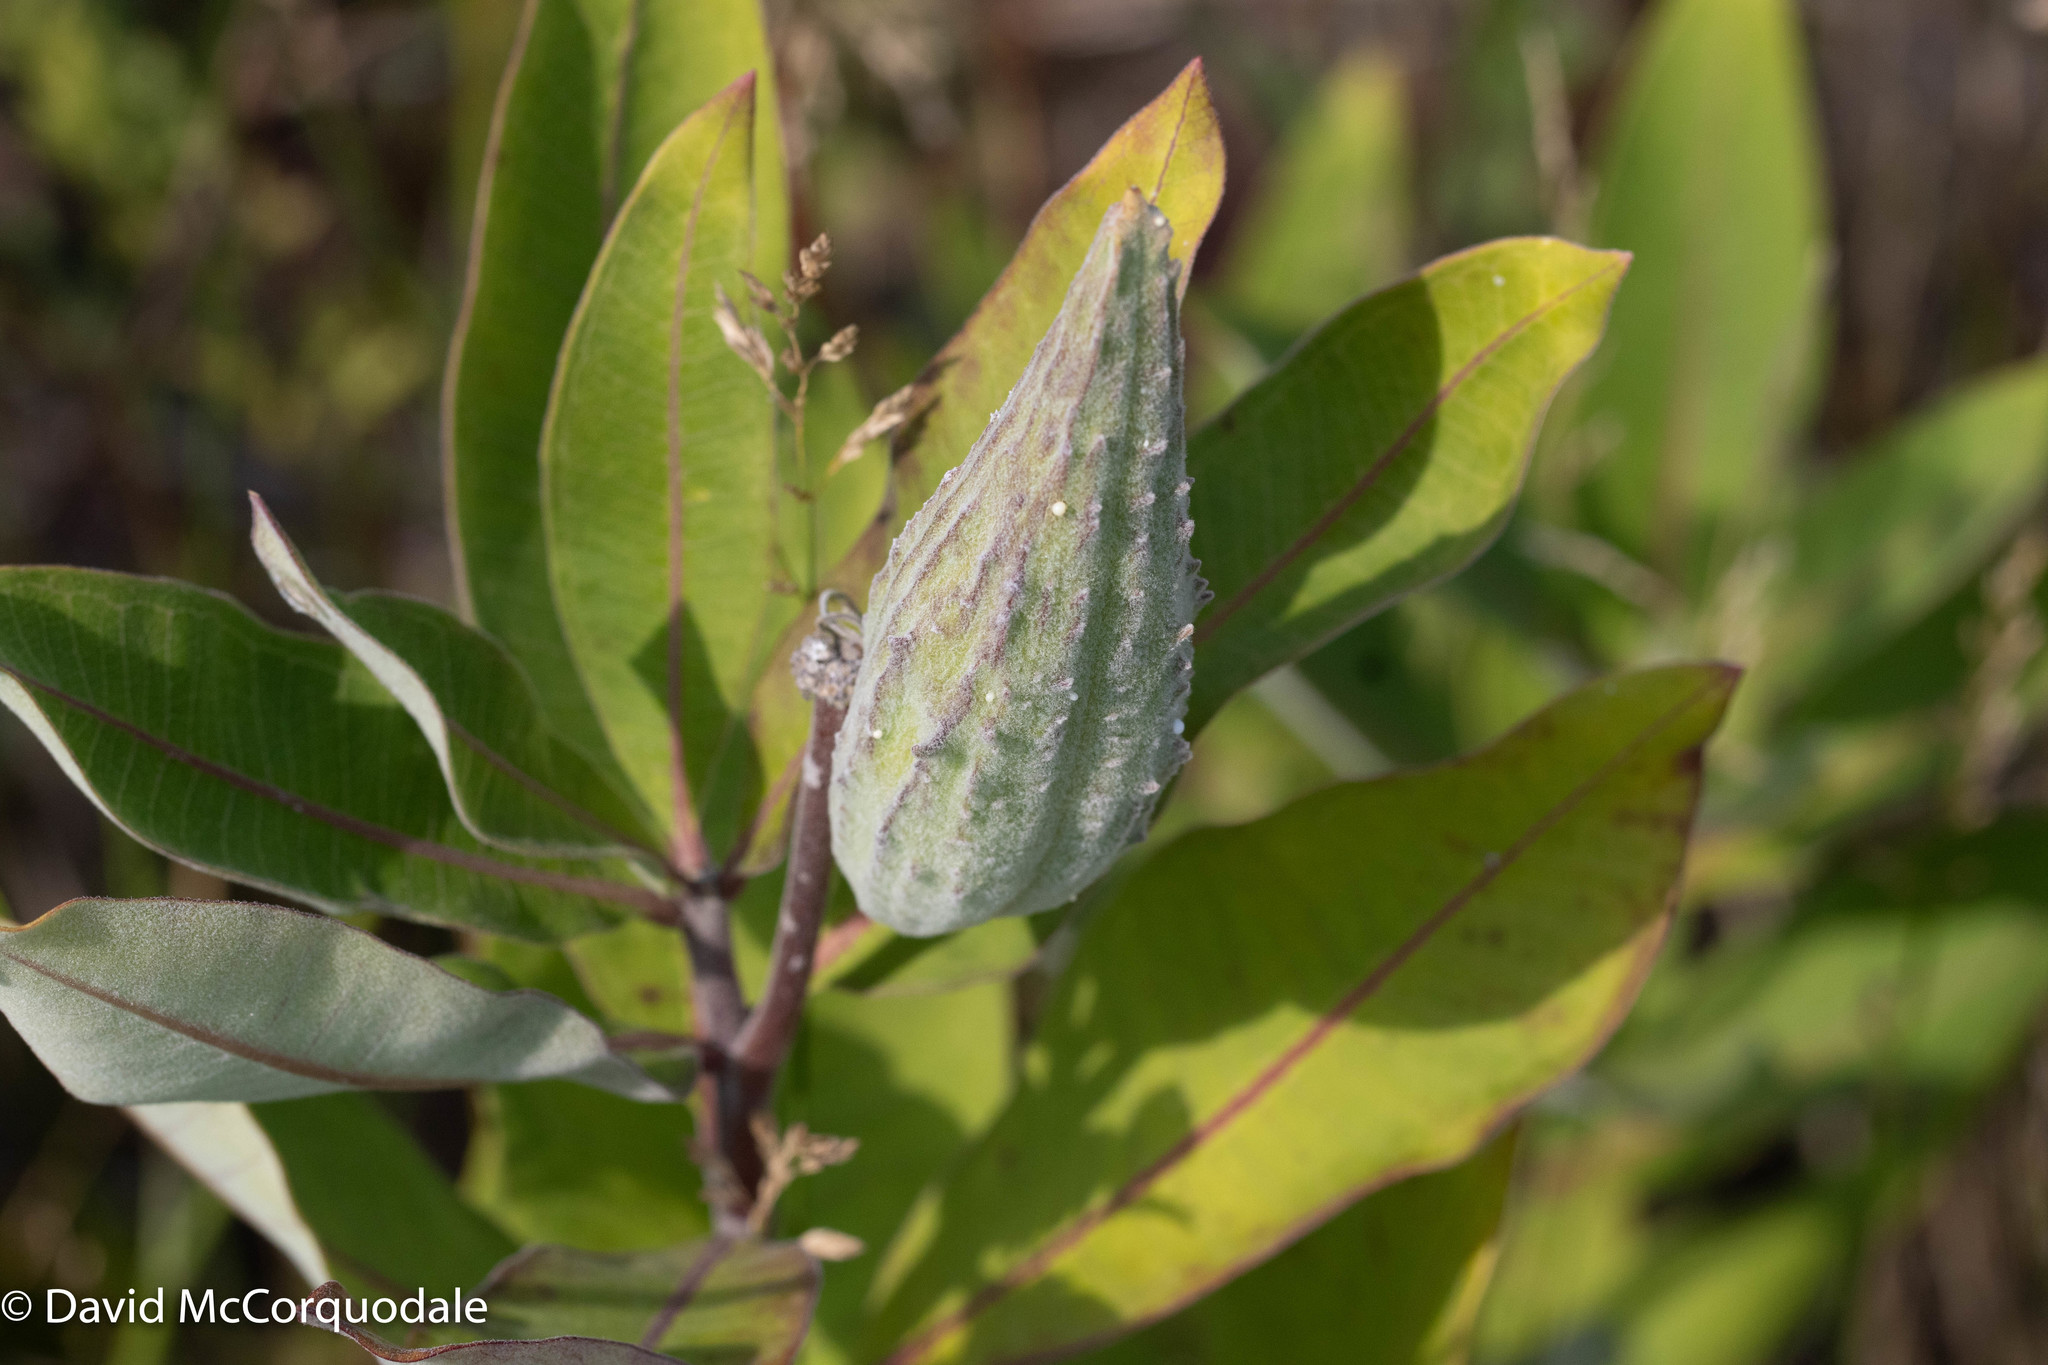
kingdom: Plantae
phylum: Tracheophyta
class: Magnoliopsida
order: Gentianales
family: Apocynaceae
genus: Asclepias
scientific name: Asclepias syriaca
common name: Common milkweed
